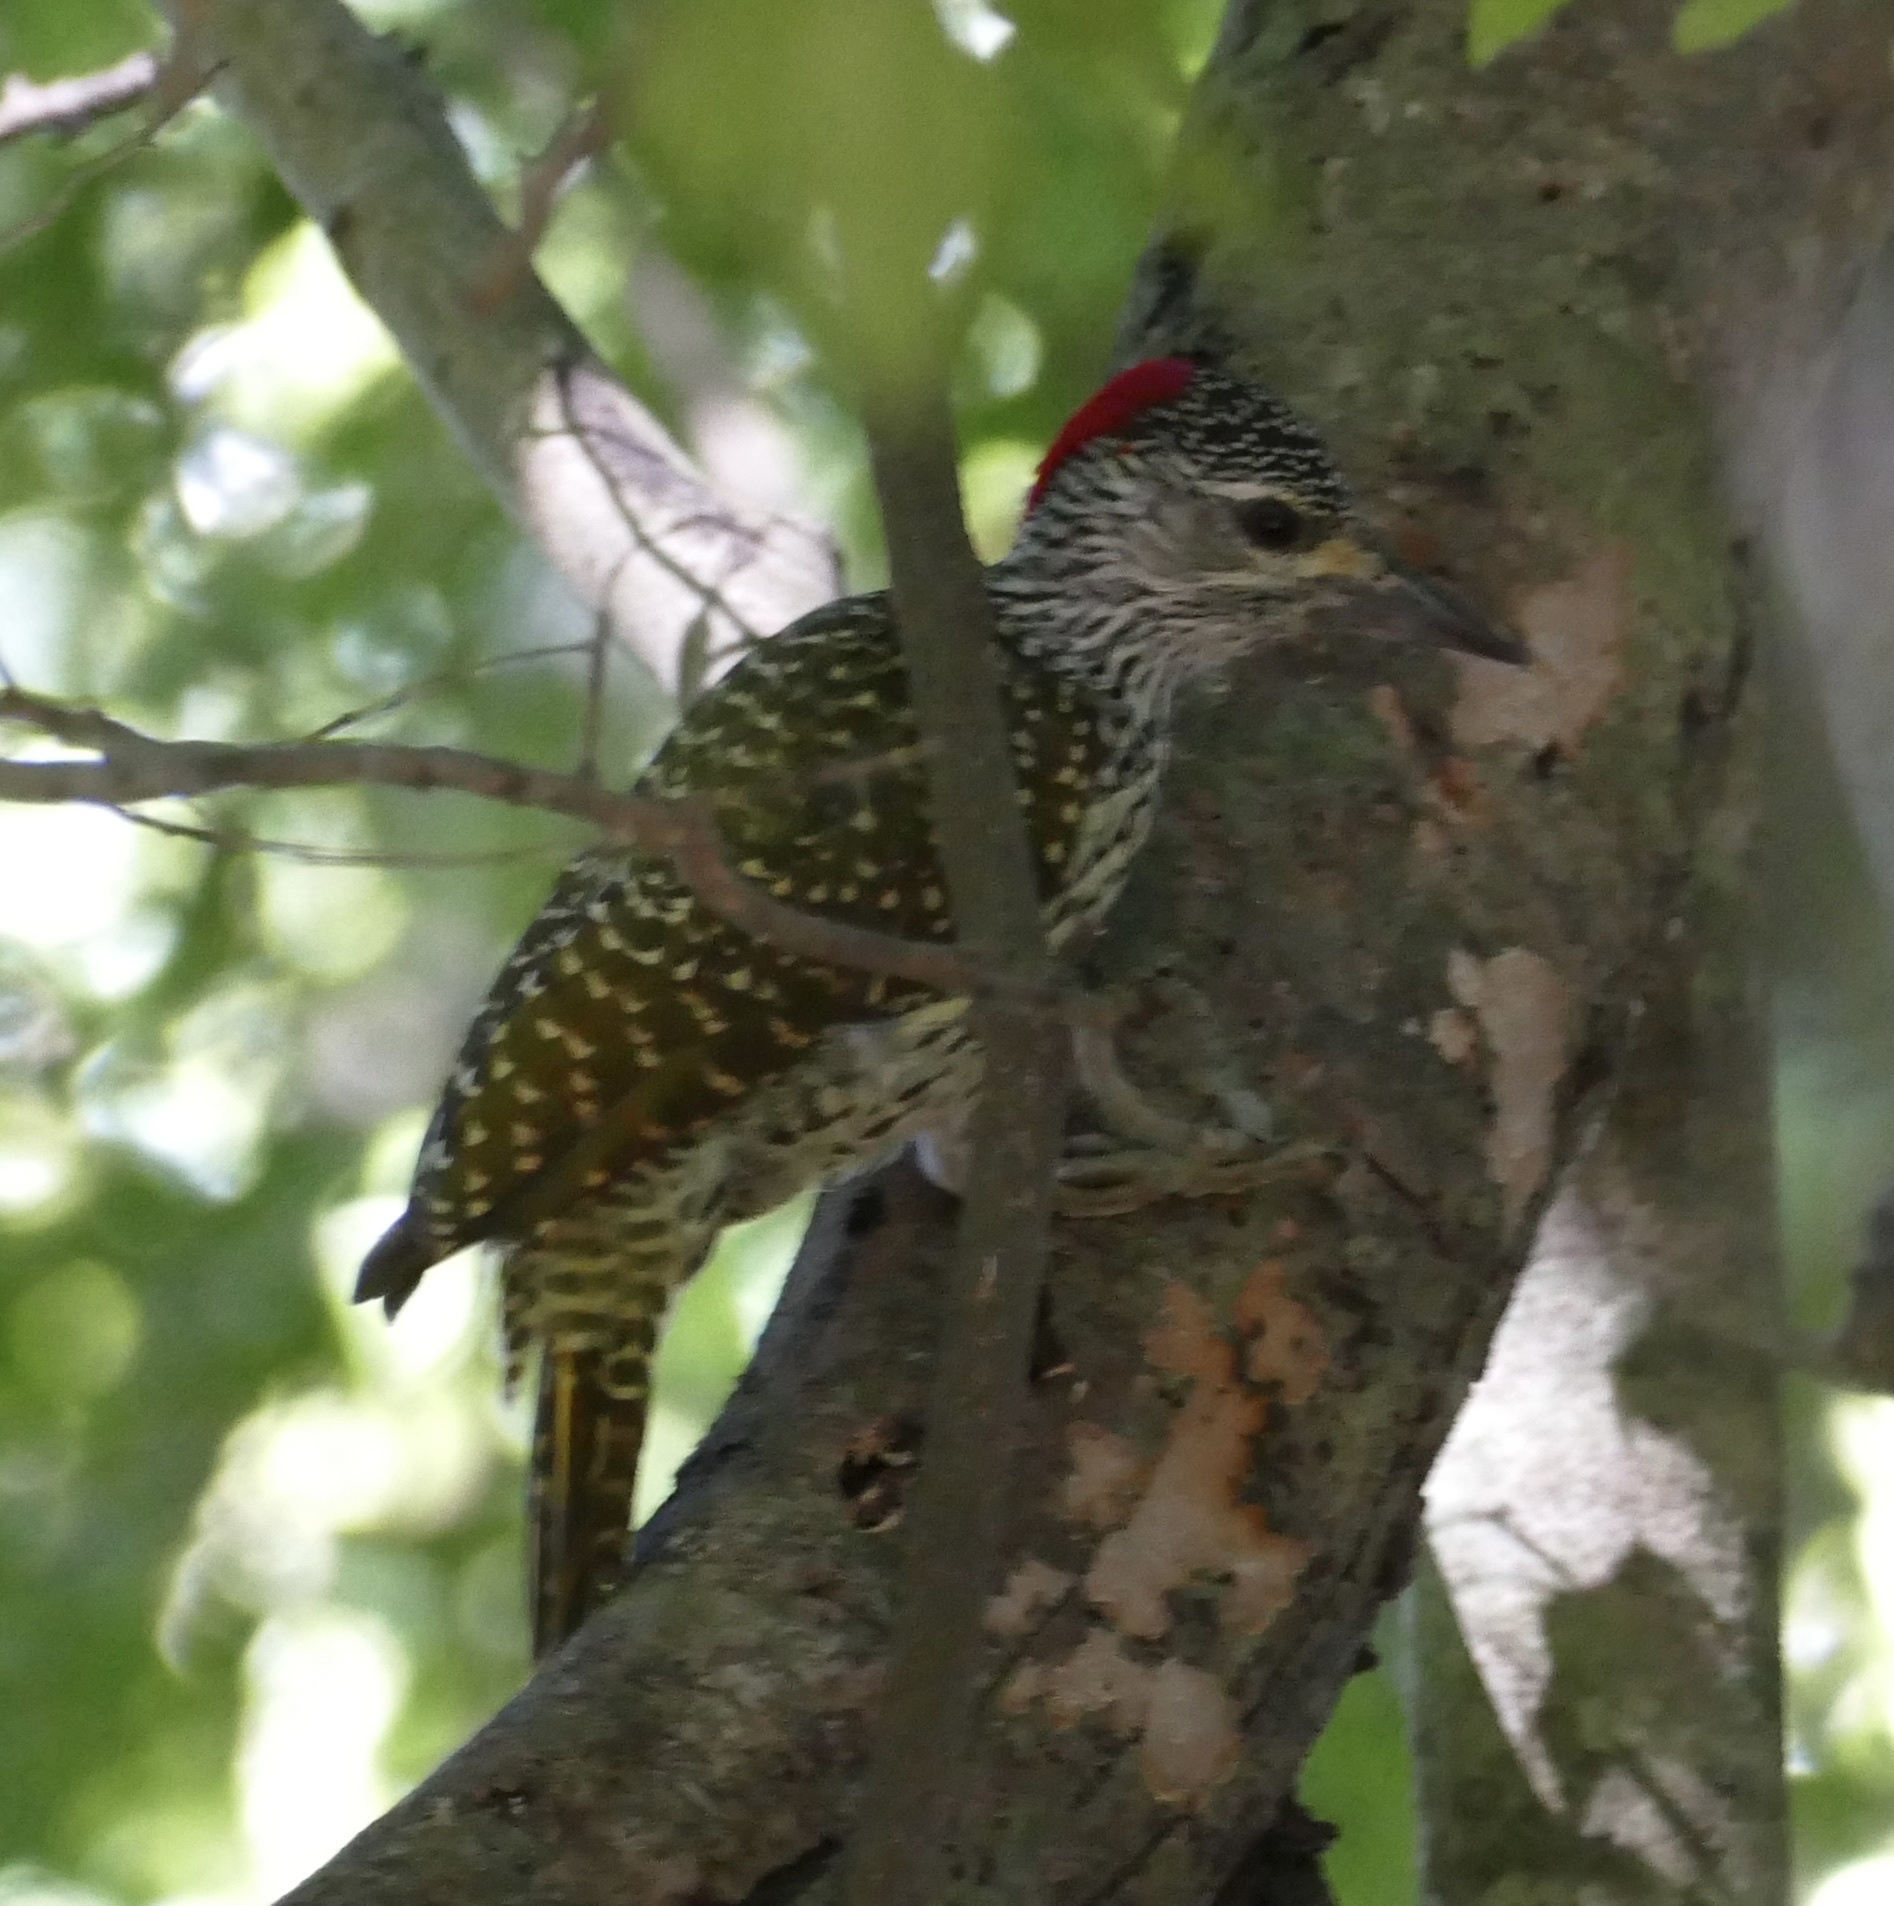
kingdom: Animalia
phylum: Chordata
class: Aves
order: Piciformes
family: Picidae
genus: Campethera
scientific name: Campethera abingoni
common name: Golden-tailed woodpecker
